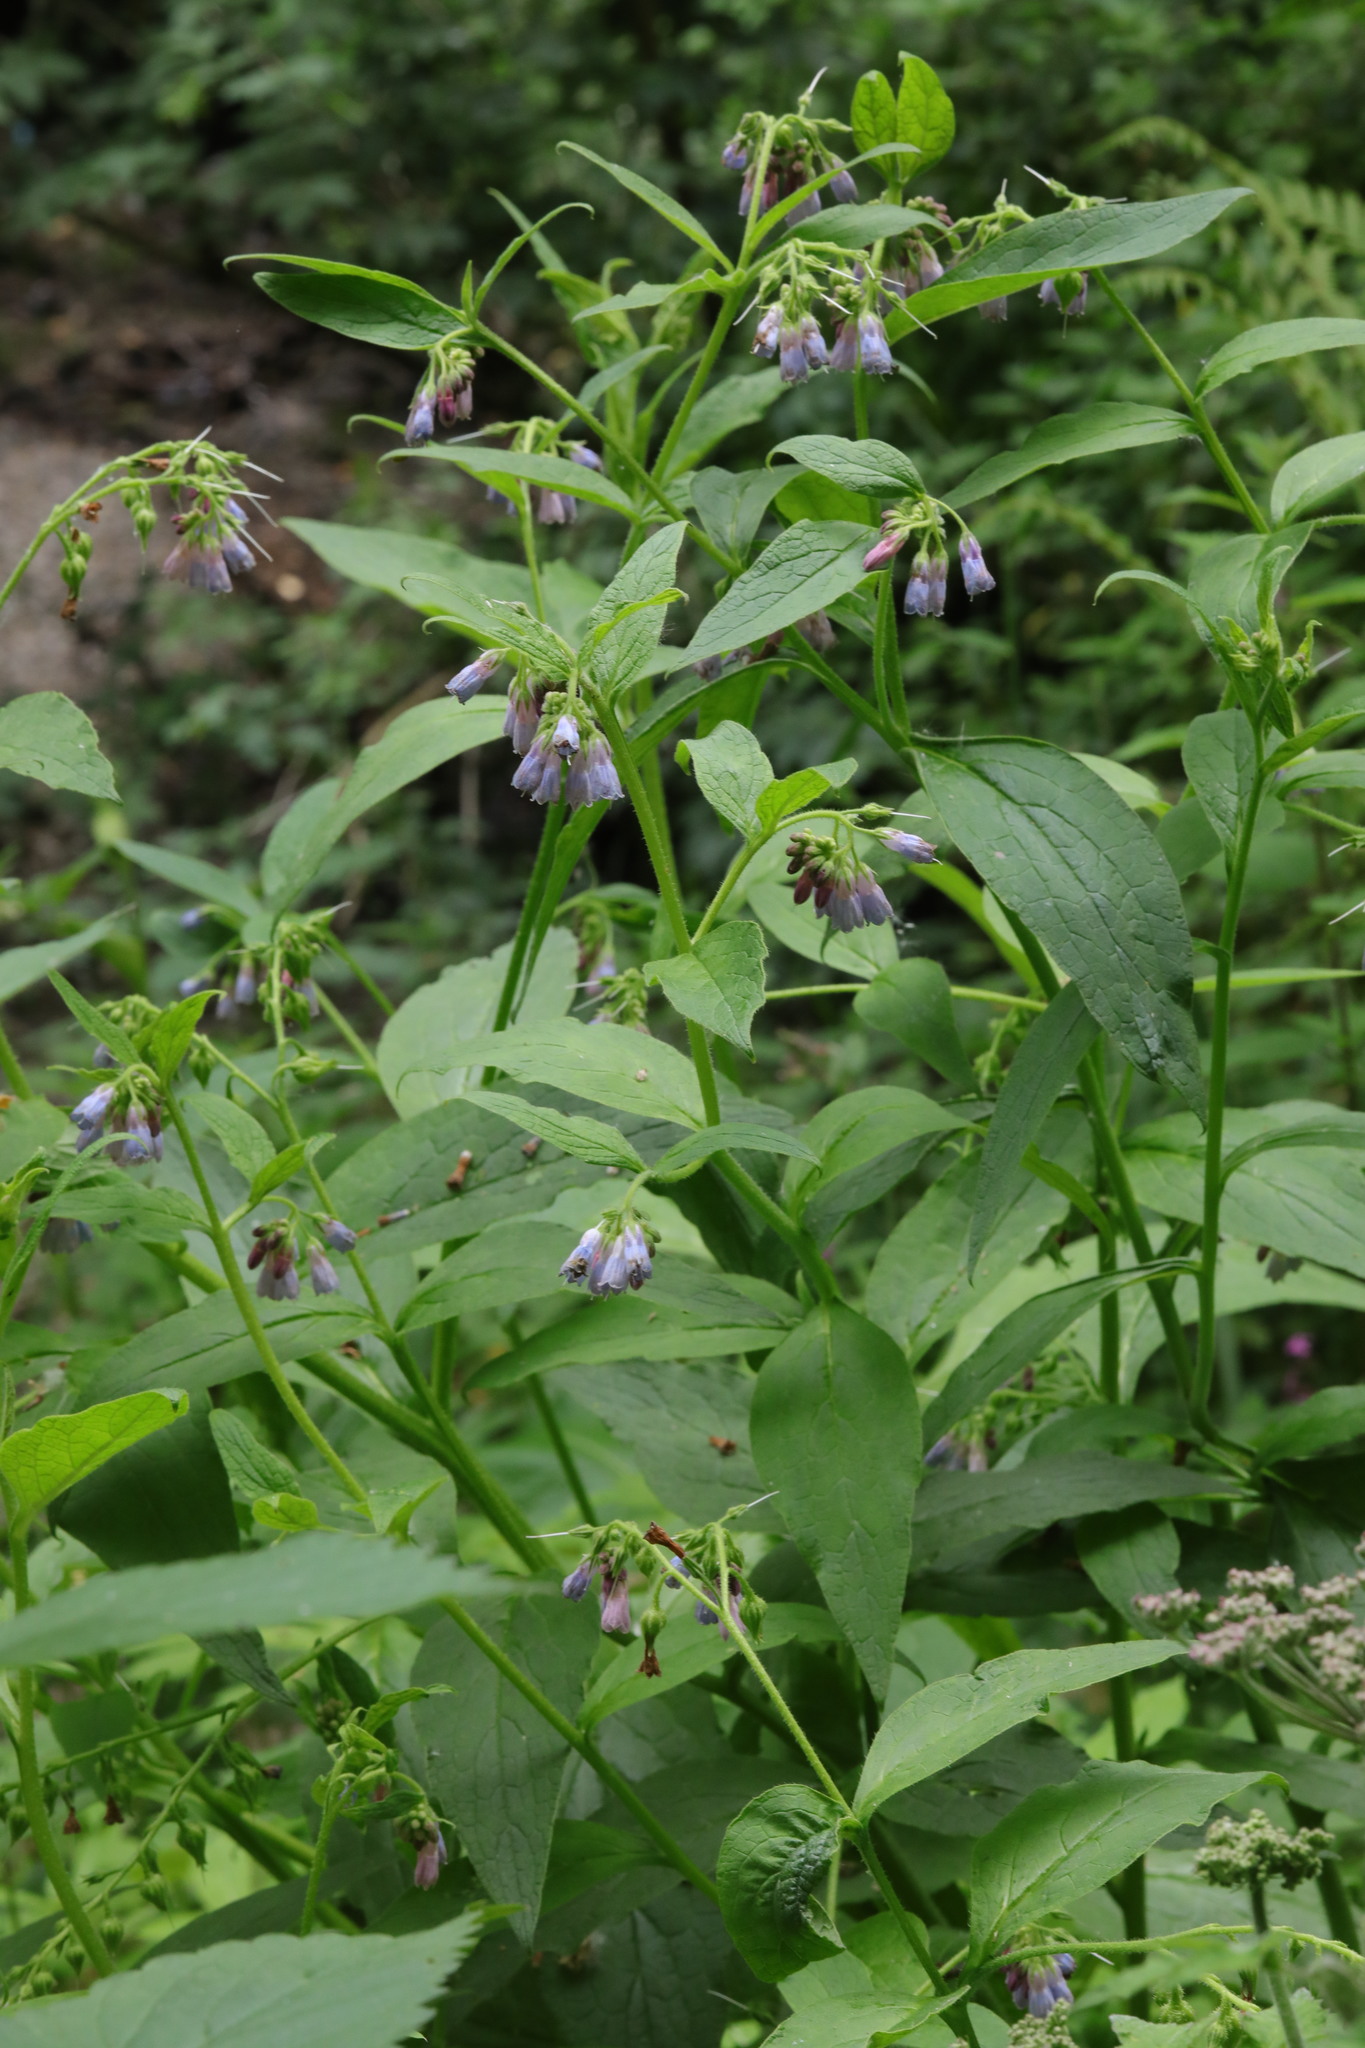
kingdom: Plantae
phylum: Tracheophyta
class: Magnoliopsida
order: Boraginales
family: Boraginaceae
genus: Symphytum
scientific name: Symphytum officinale
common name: Common comfrey
